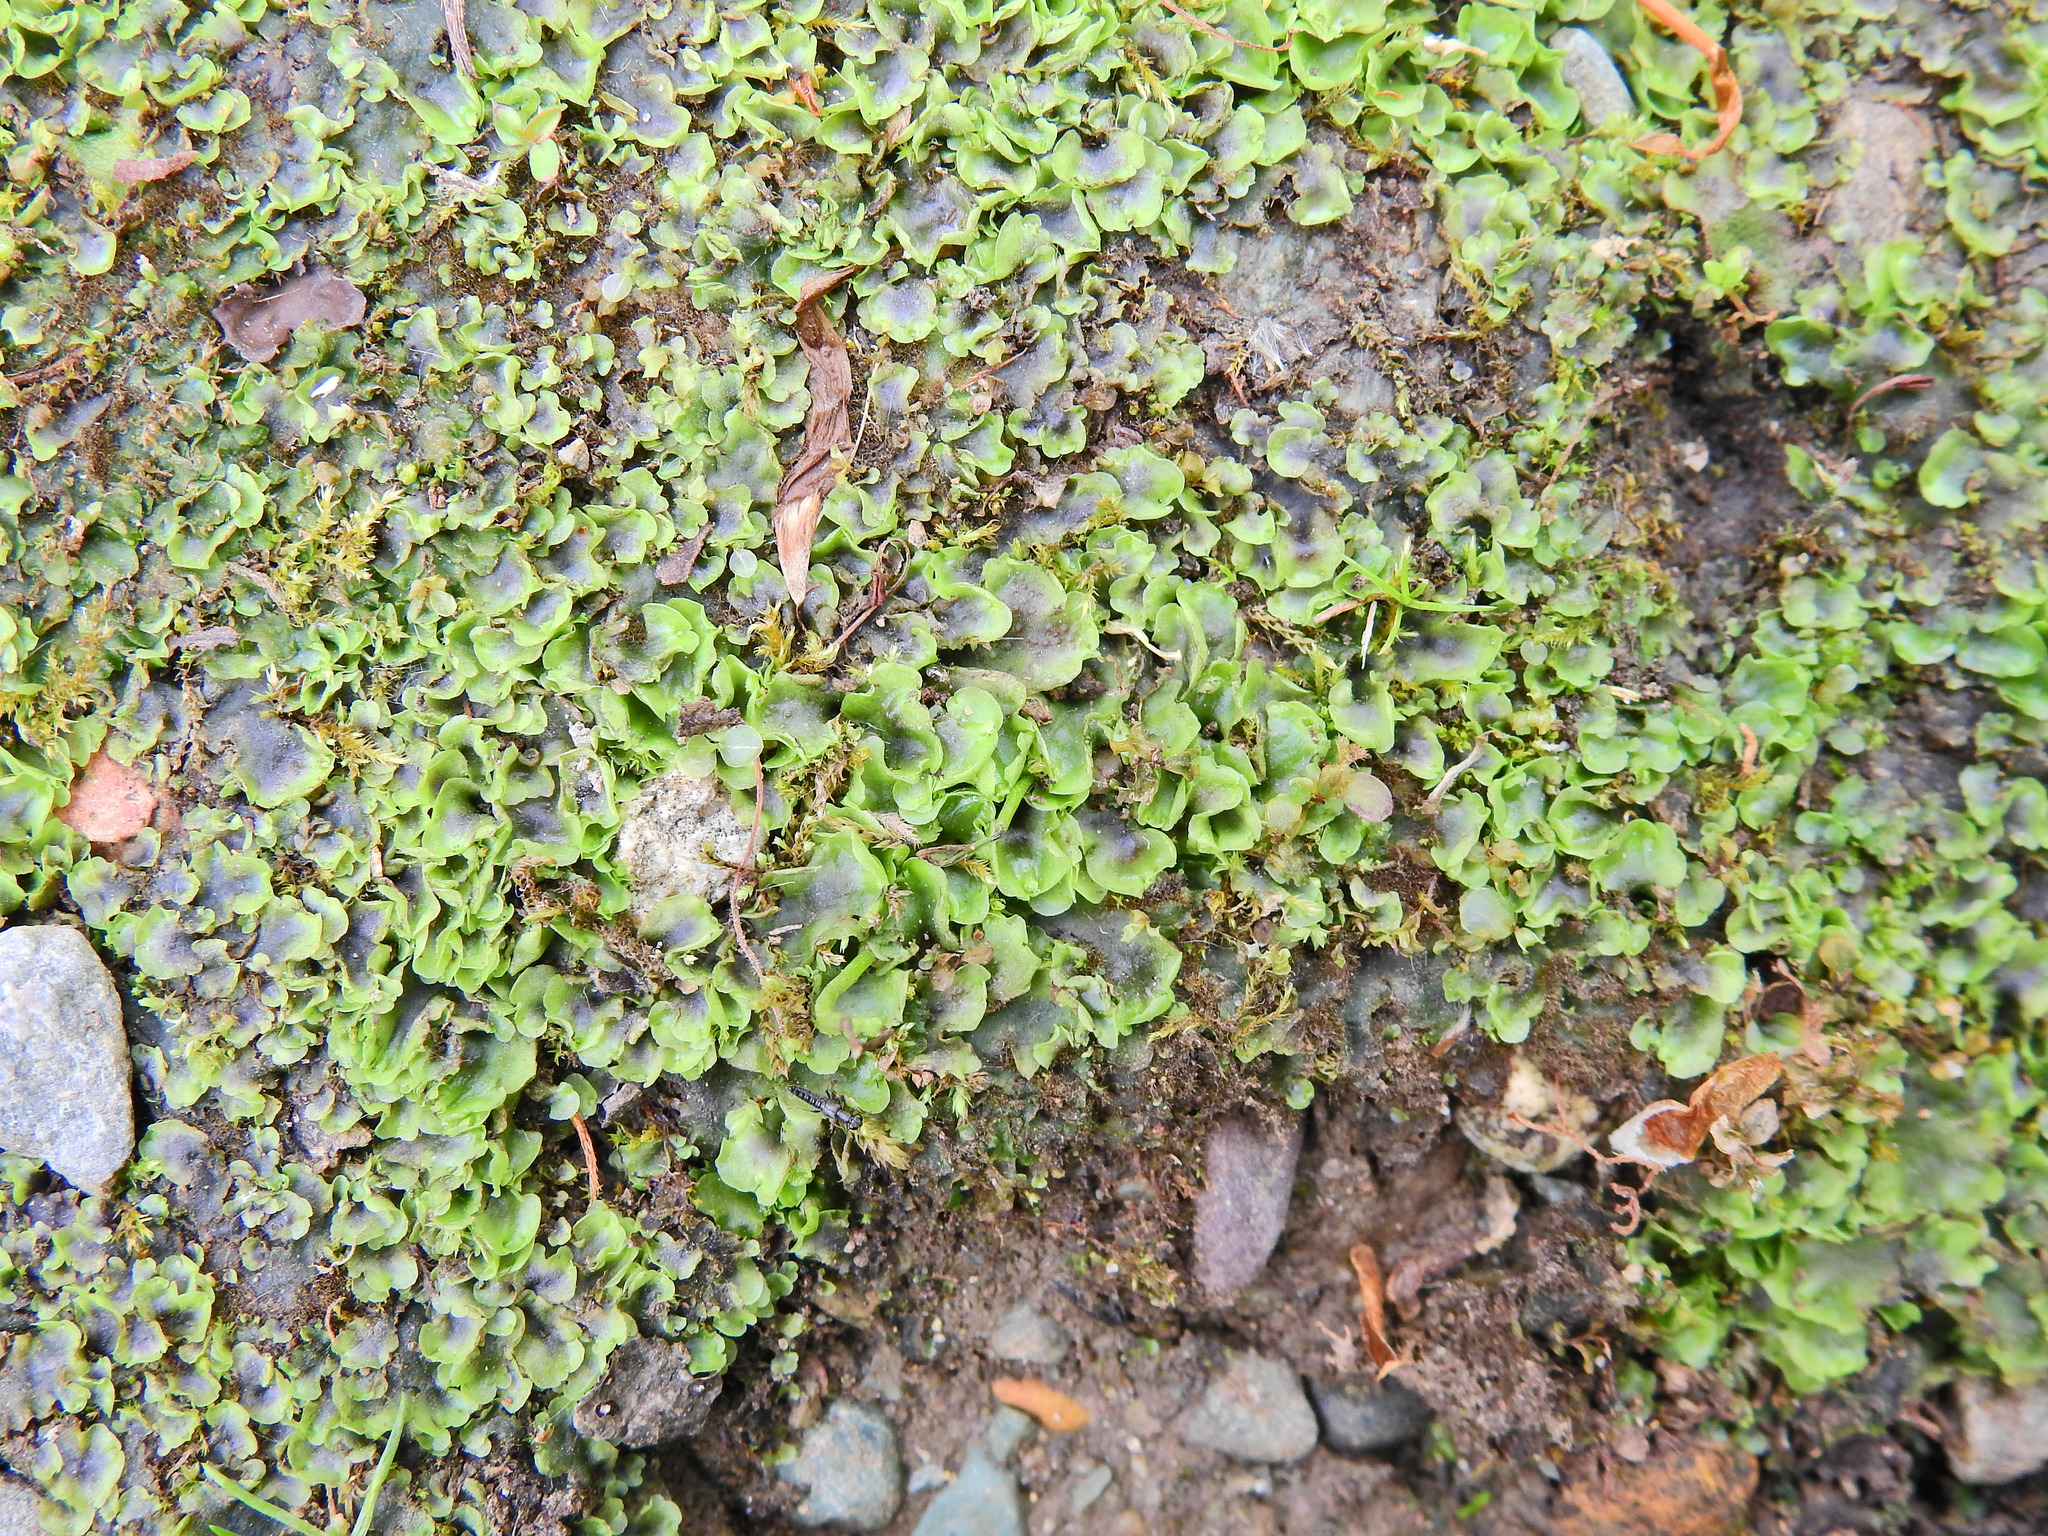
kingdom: Plantae
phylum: Marchantiophyta
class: Jungermanniopsida
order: Pelliales
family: Pelliaceae
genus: Pellia
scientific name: Pellia neesiana
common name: Nees  pellia
